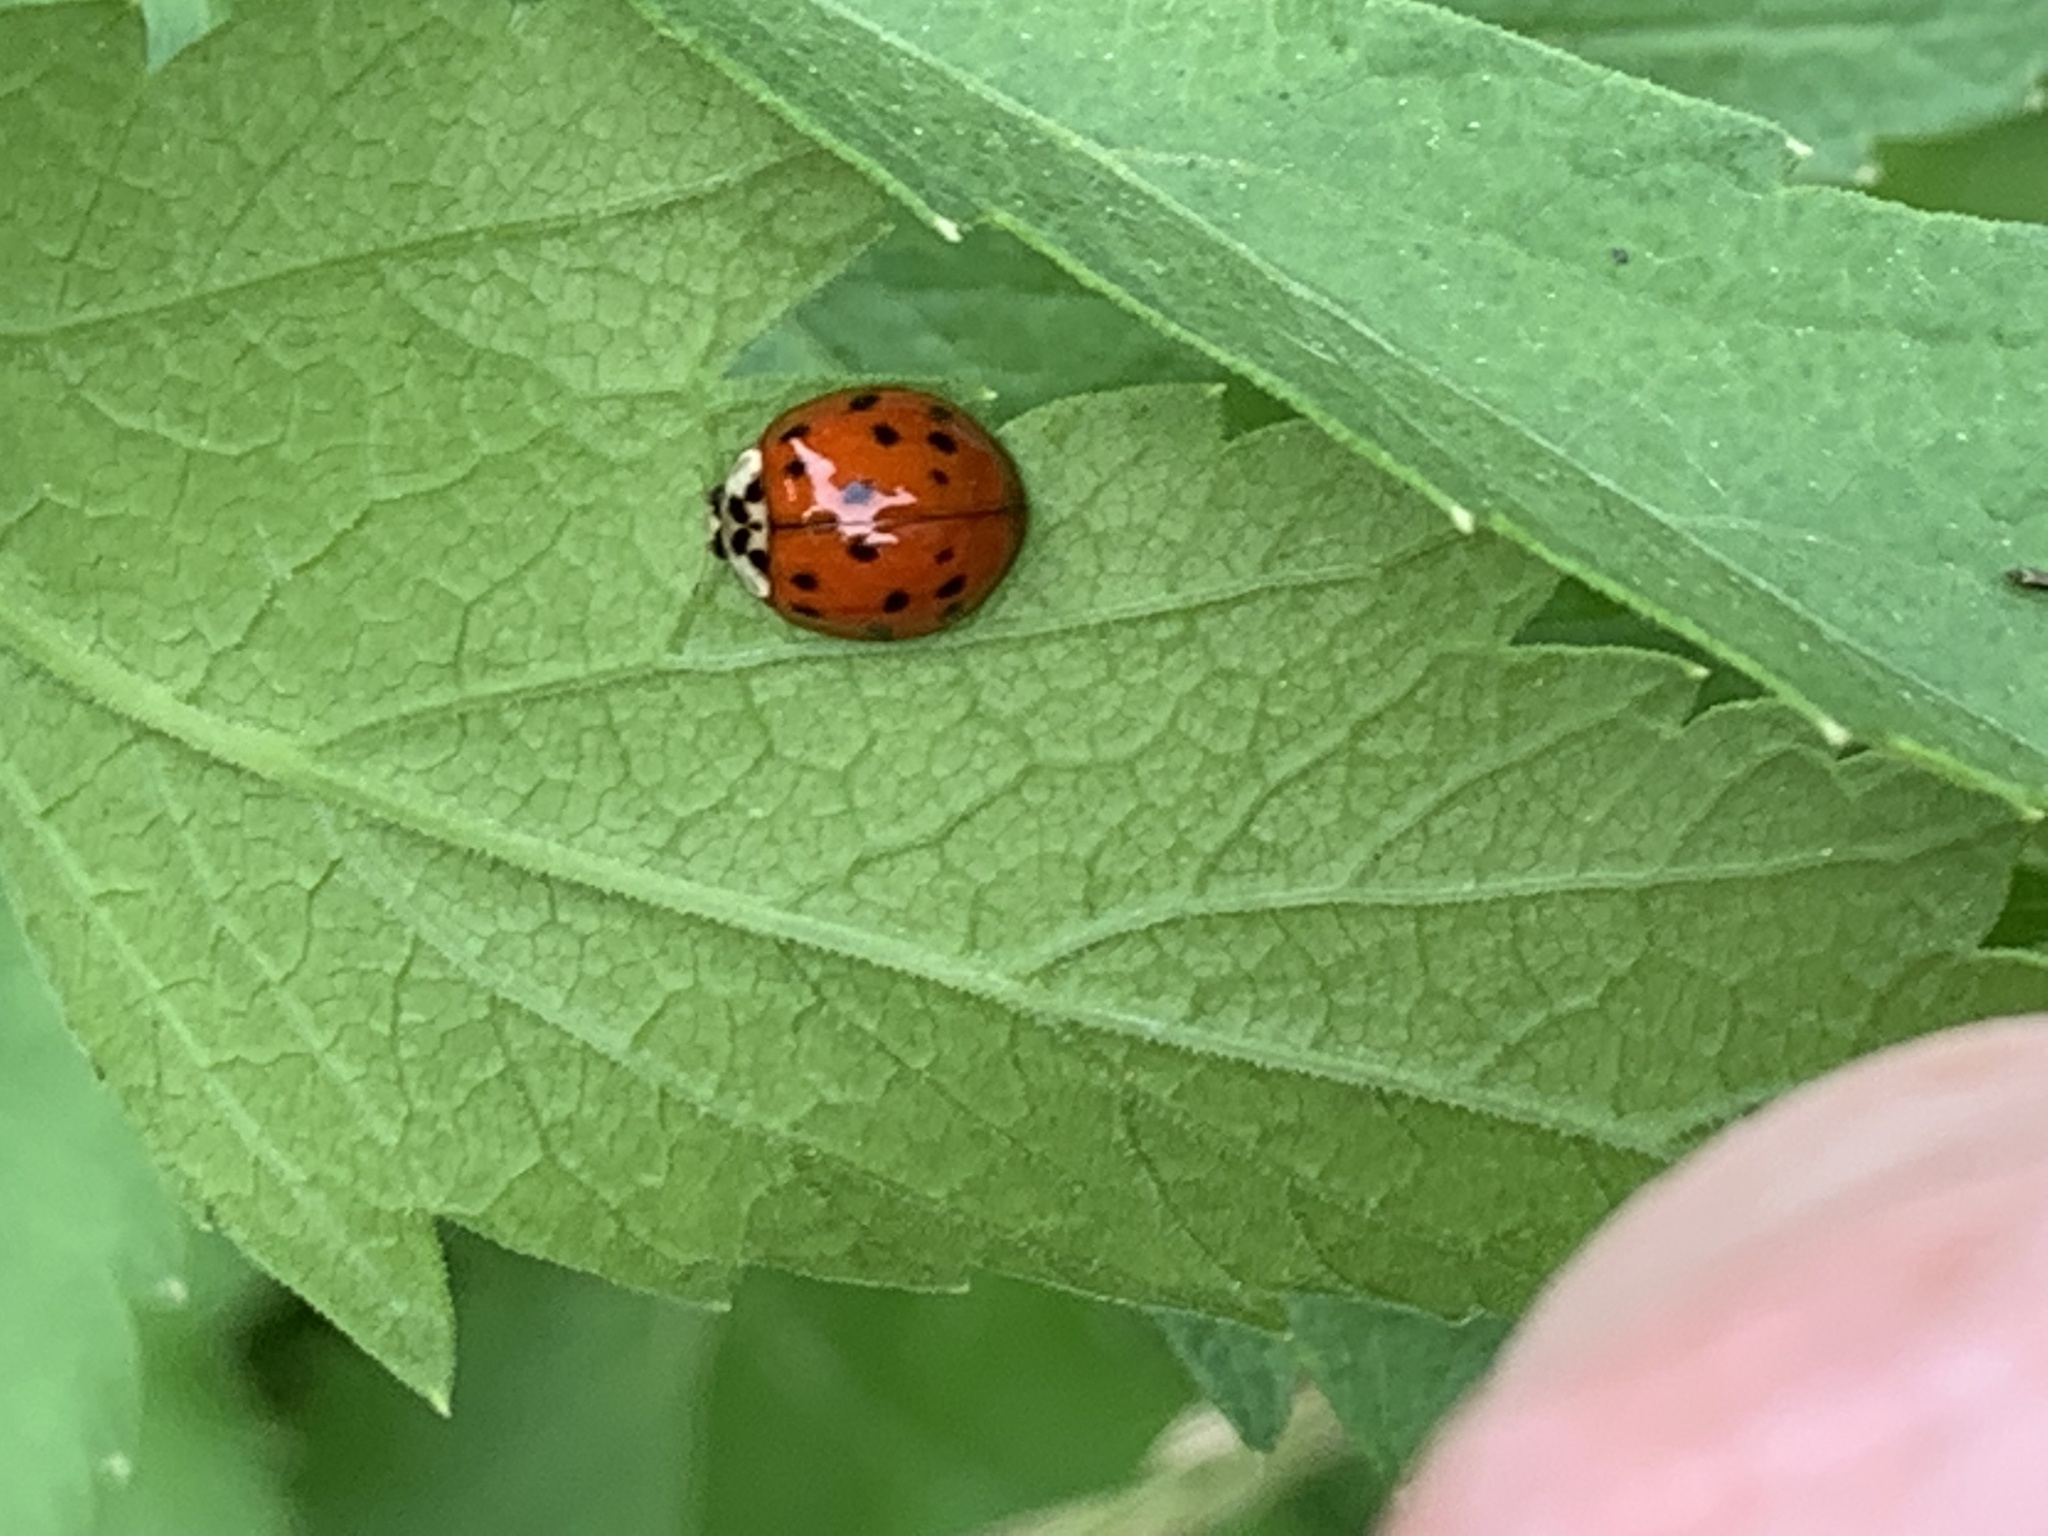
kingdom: Animalia
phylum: Arthropoda
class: Insecta
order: Coleoptera
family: Coccinellidae
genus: Harmonia
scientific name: Harmonia axyridis
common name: Harlequin ladybird
